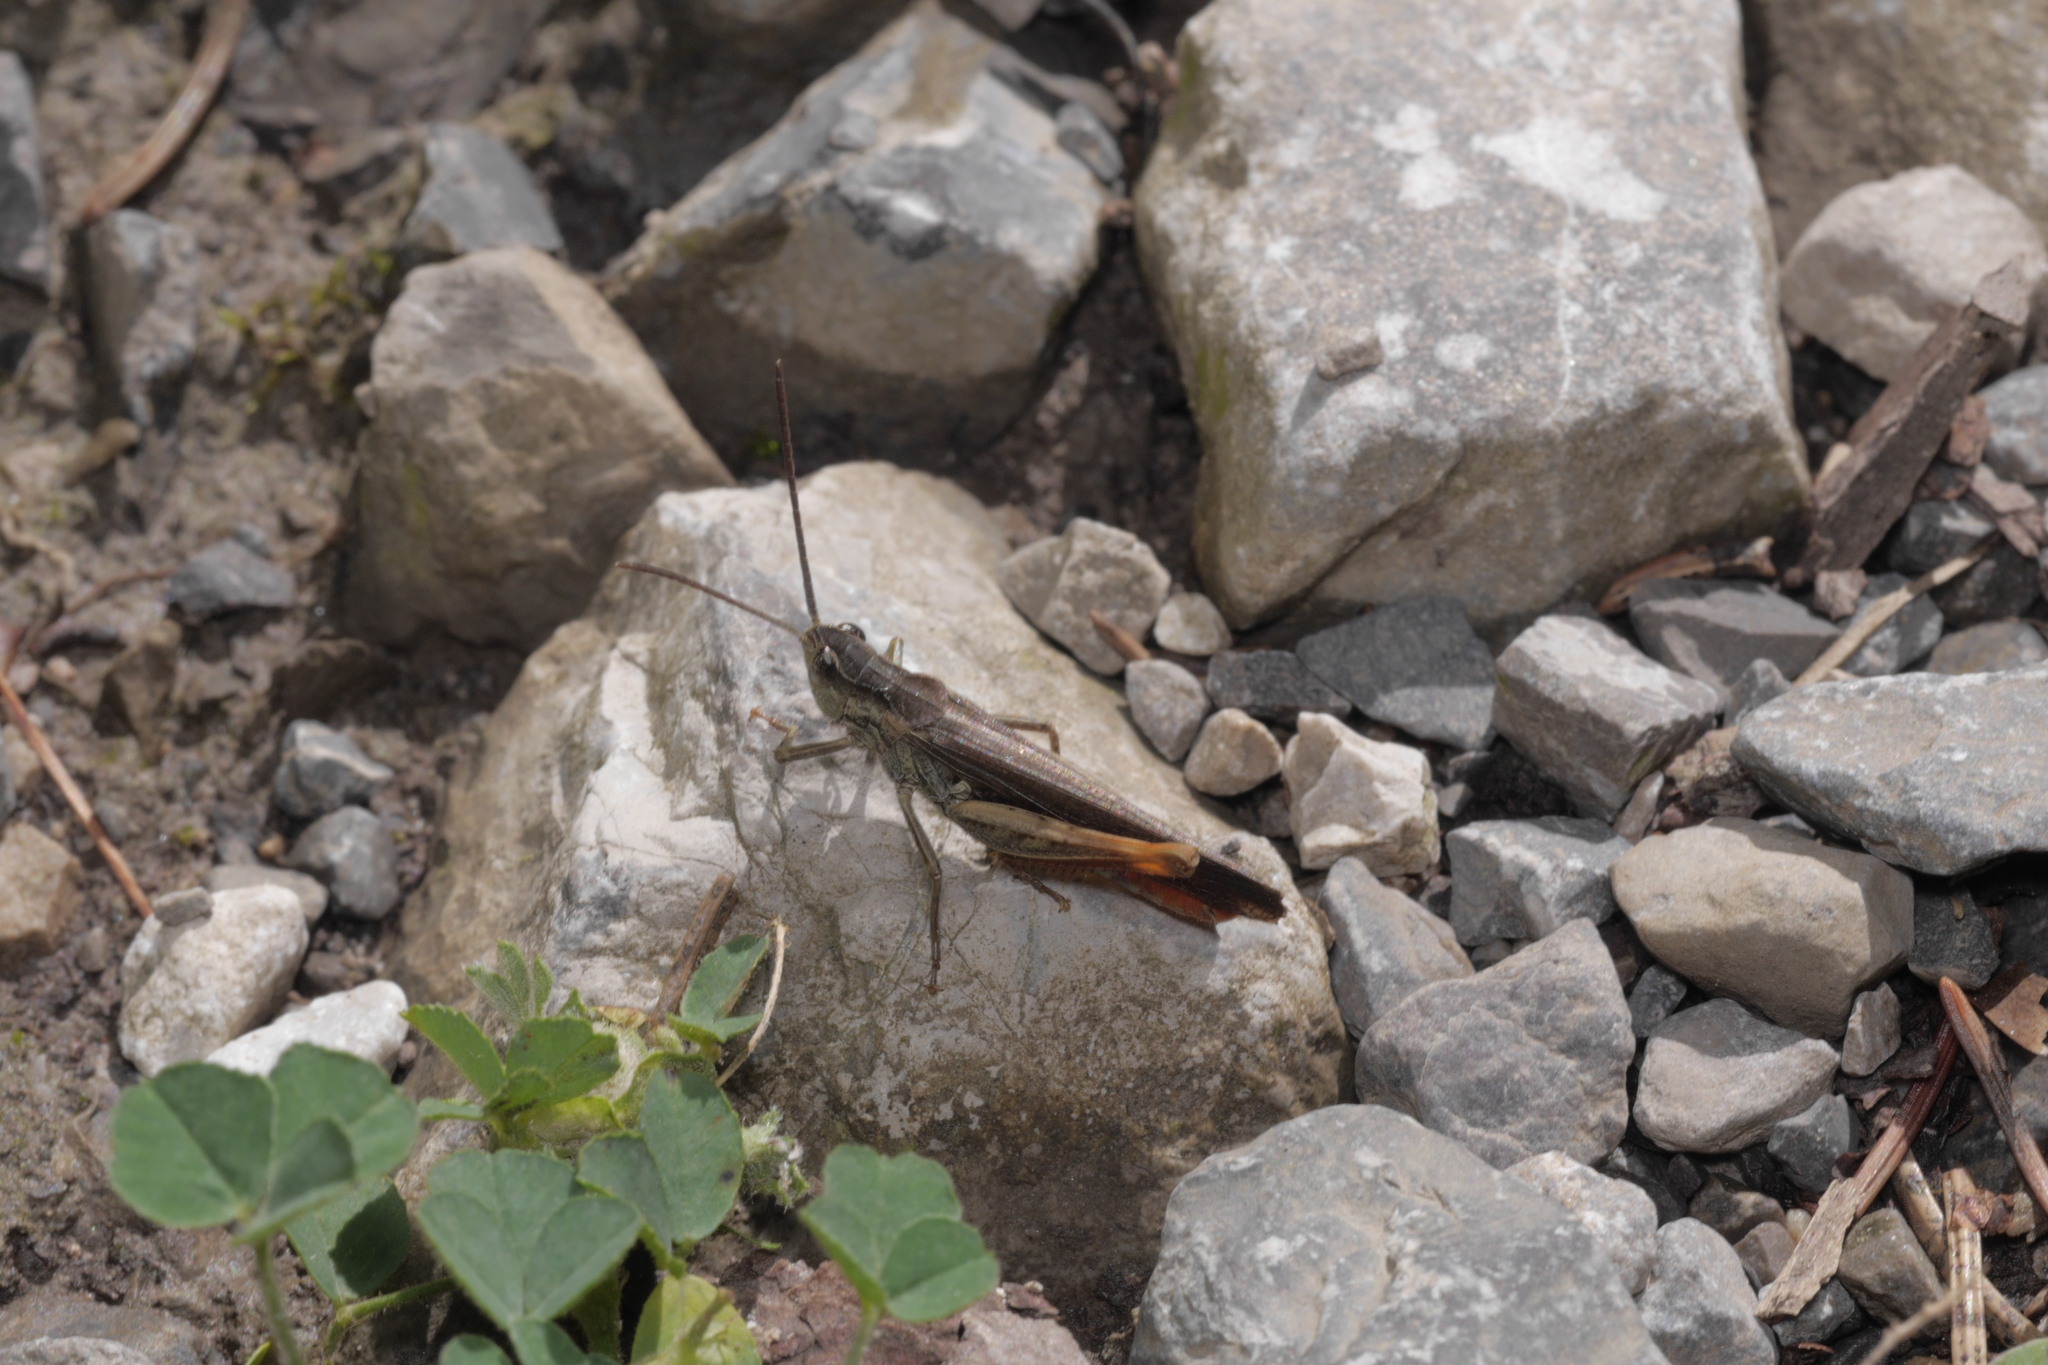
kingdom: Animalia
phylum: Arthropoda
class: Insecta
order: Orthoptera
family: Acrididae
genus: Chorthippus
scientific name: Chorthippus brunneus
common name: Field grasshopper
